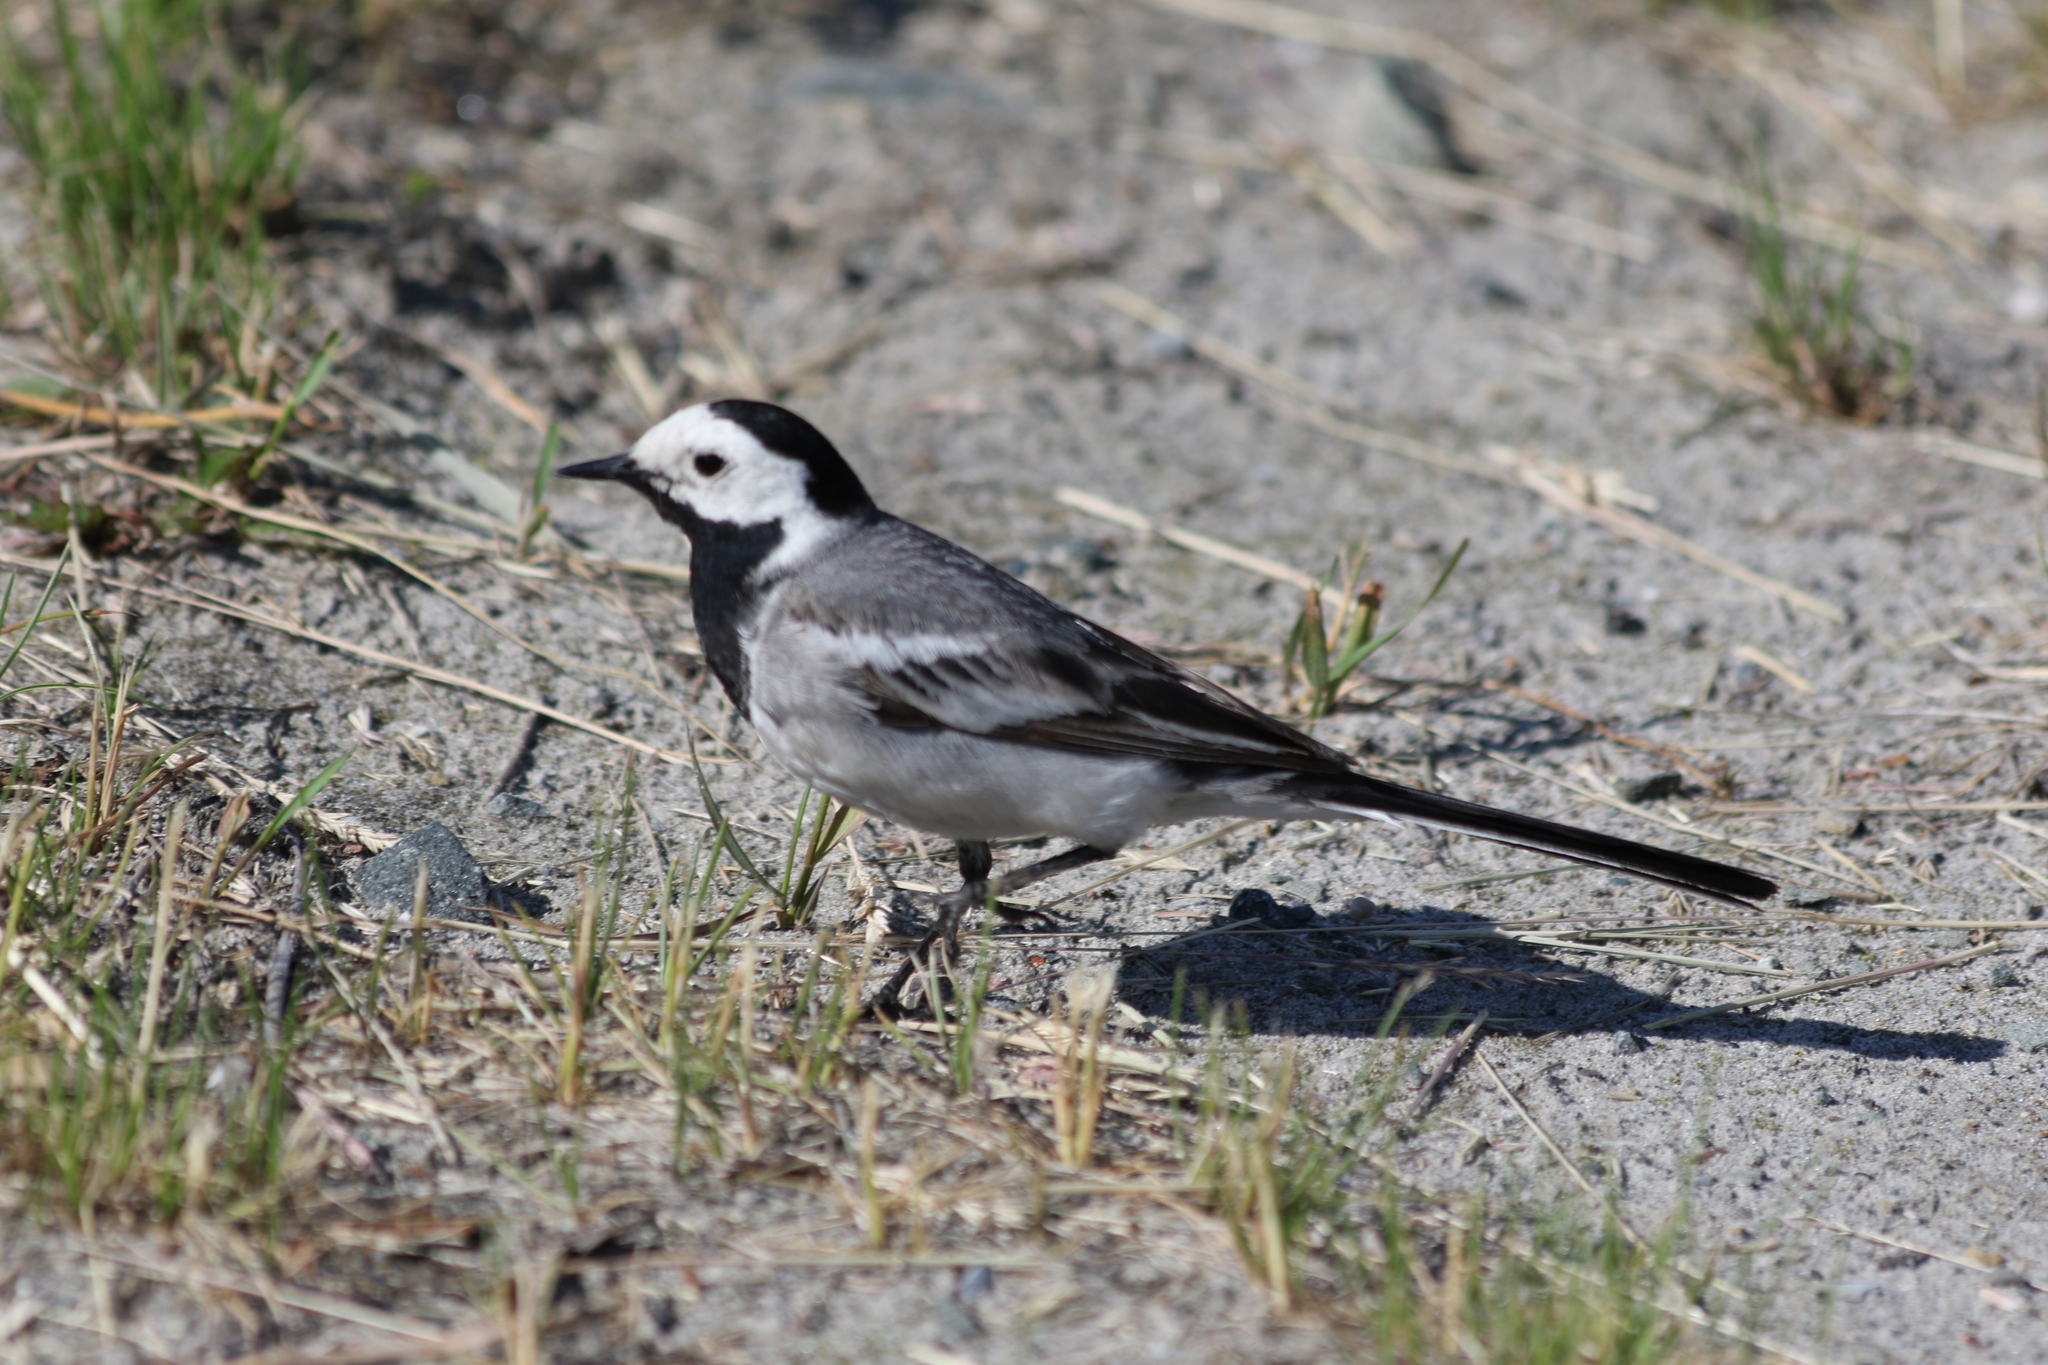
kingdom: Animalia
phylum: Chordata
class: Aves
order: Passeriformes
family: Motacillidae
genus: Motacilla
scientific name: Motacilla alba
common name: White wagtail
